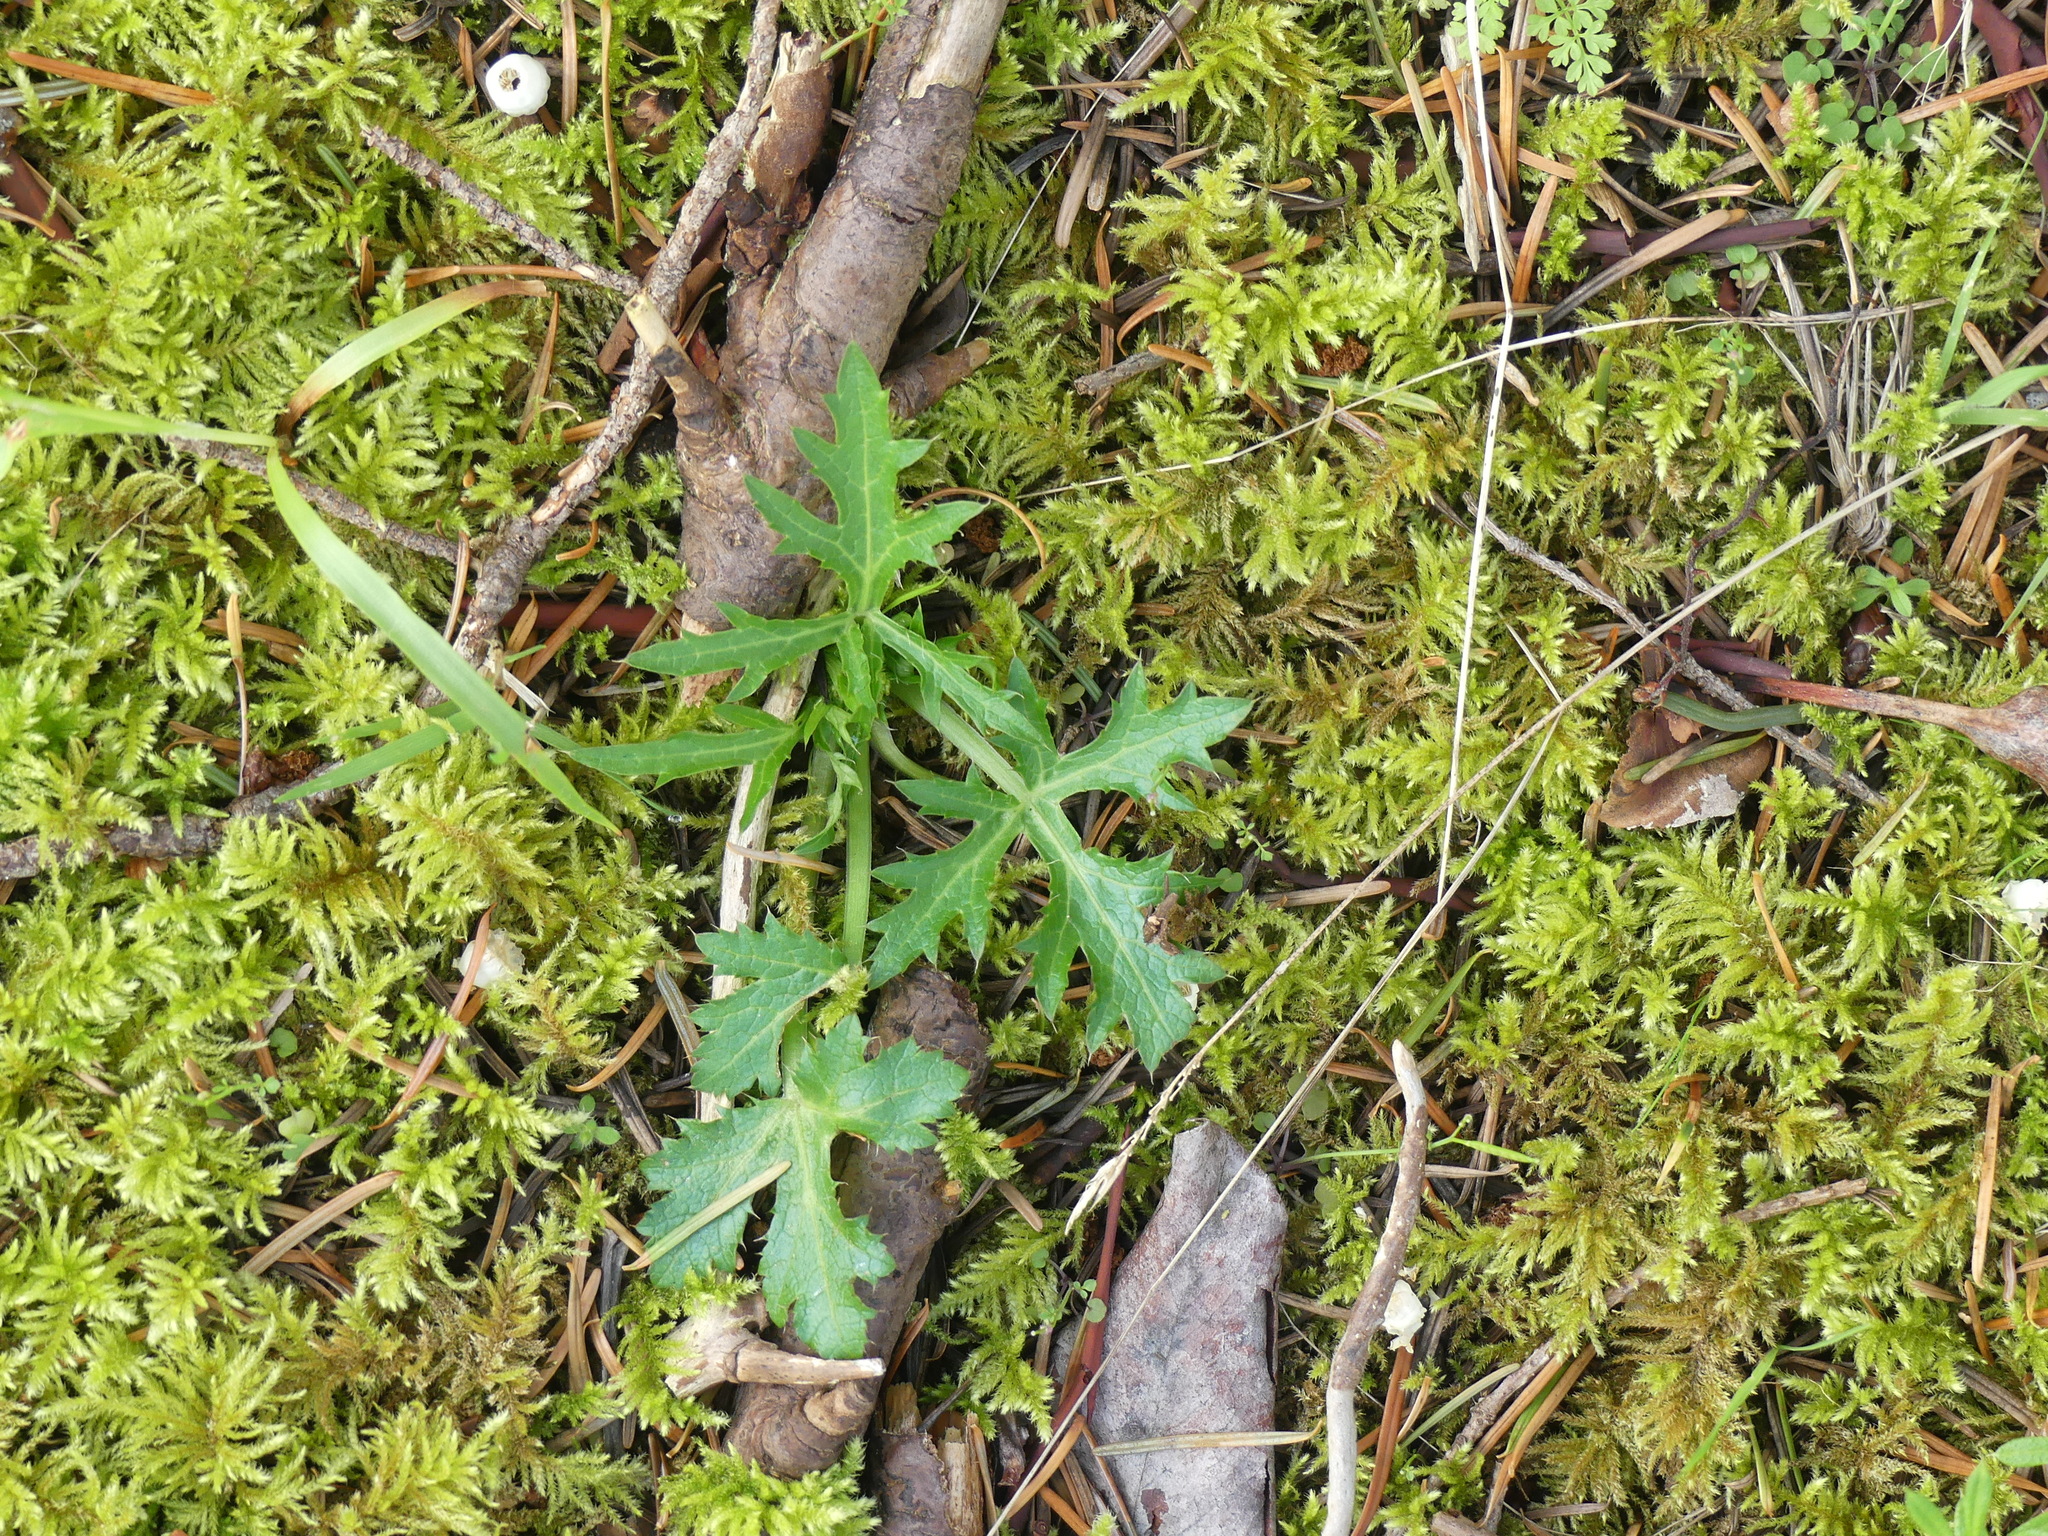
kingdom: Plantae
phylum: Tracheophyta
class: Magnoliopsida
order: Apiales
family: Apiaceae
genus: Sanicula
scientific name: Sanicula crassicaulis
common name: Western snakeroot
